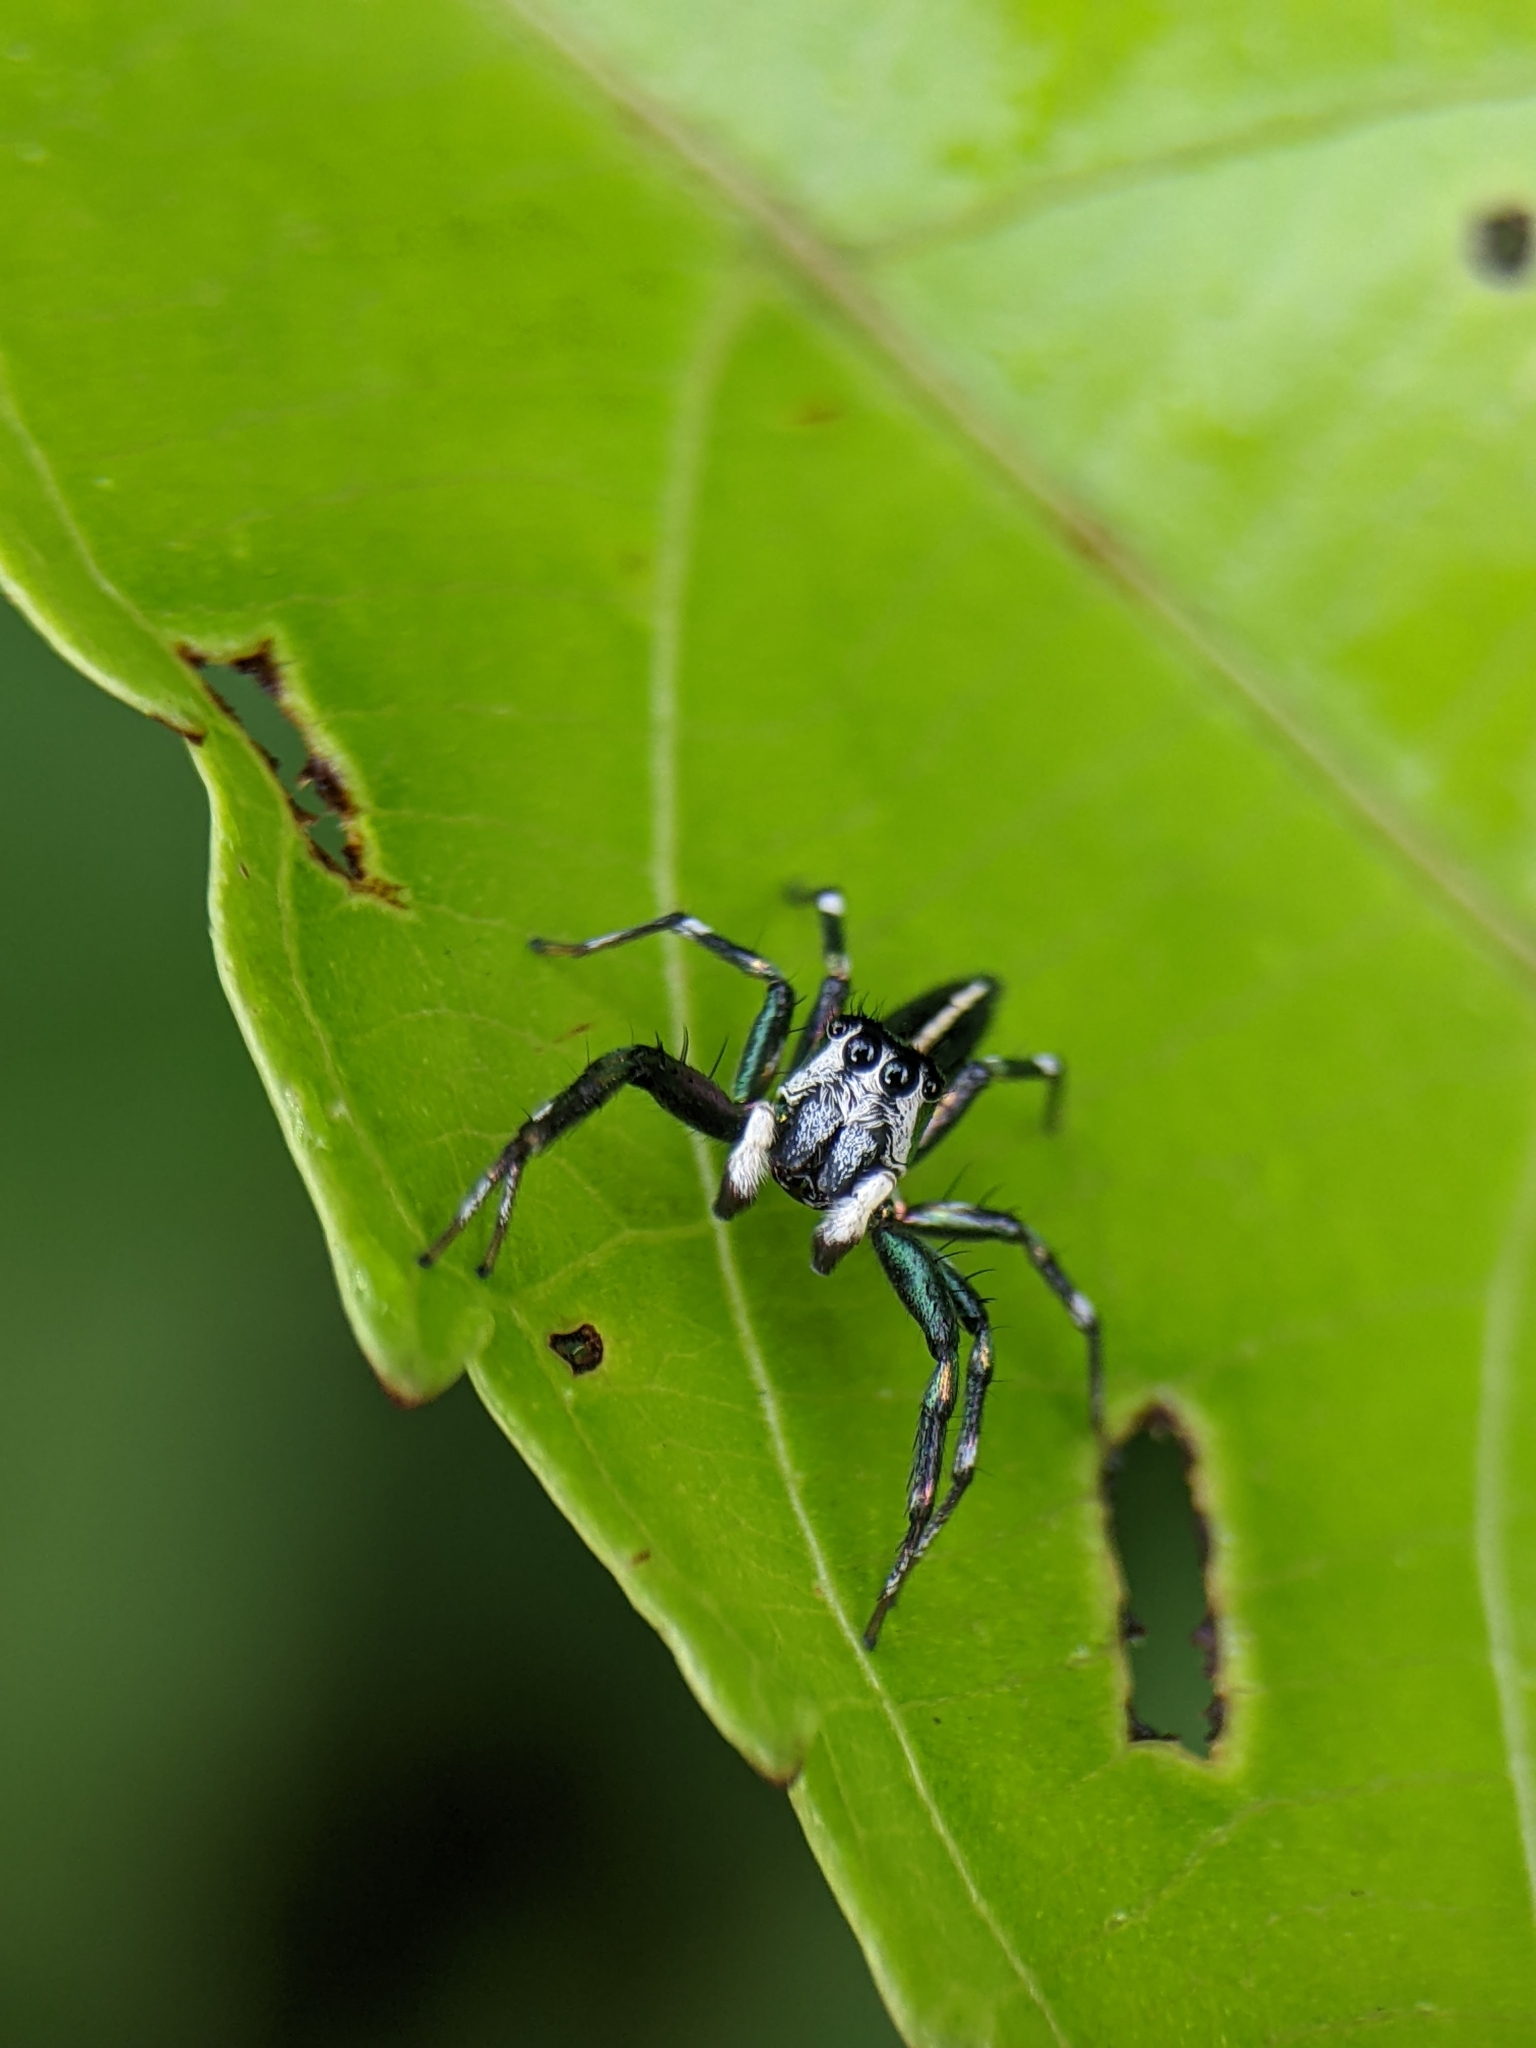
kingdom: Animalia
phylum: Arthropoda
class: Arachnida
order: Araneae
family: Salticidae
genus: Cosmophasis
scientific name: Cosmophasis thalassina
